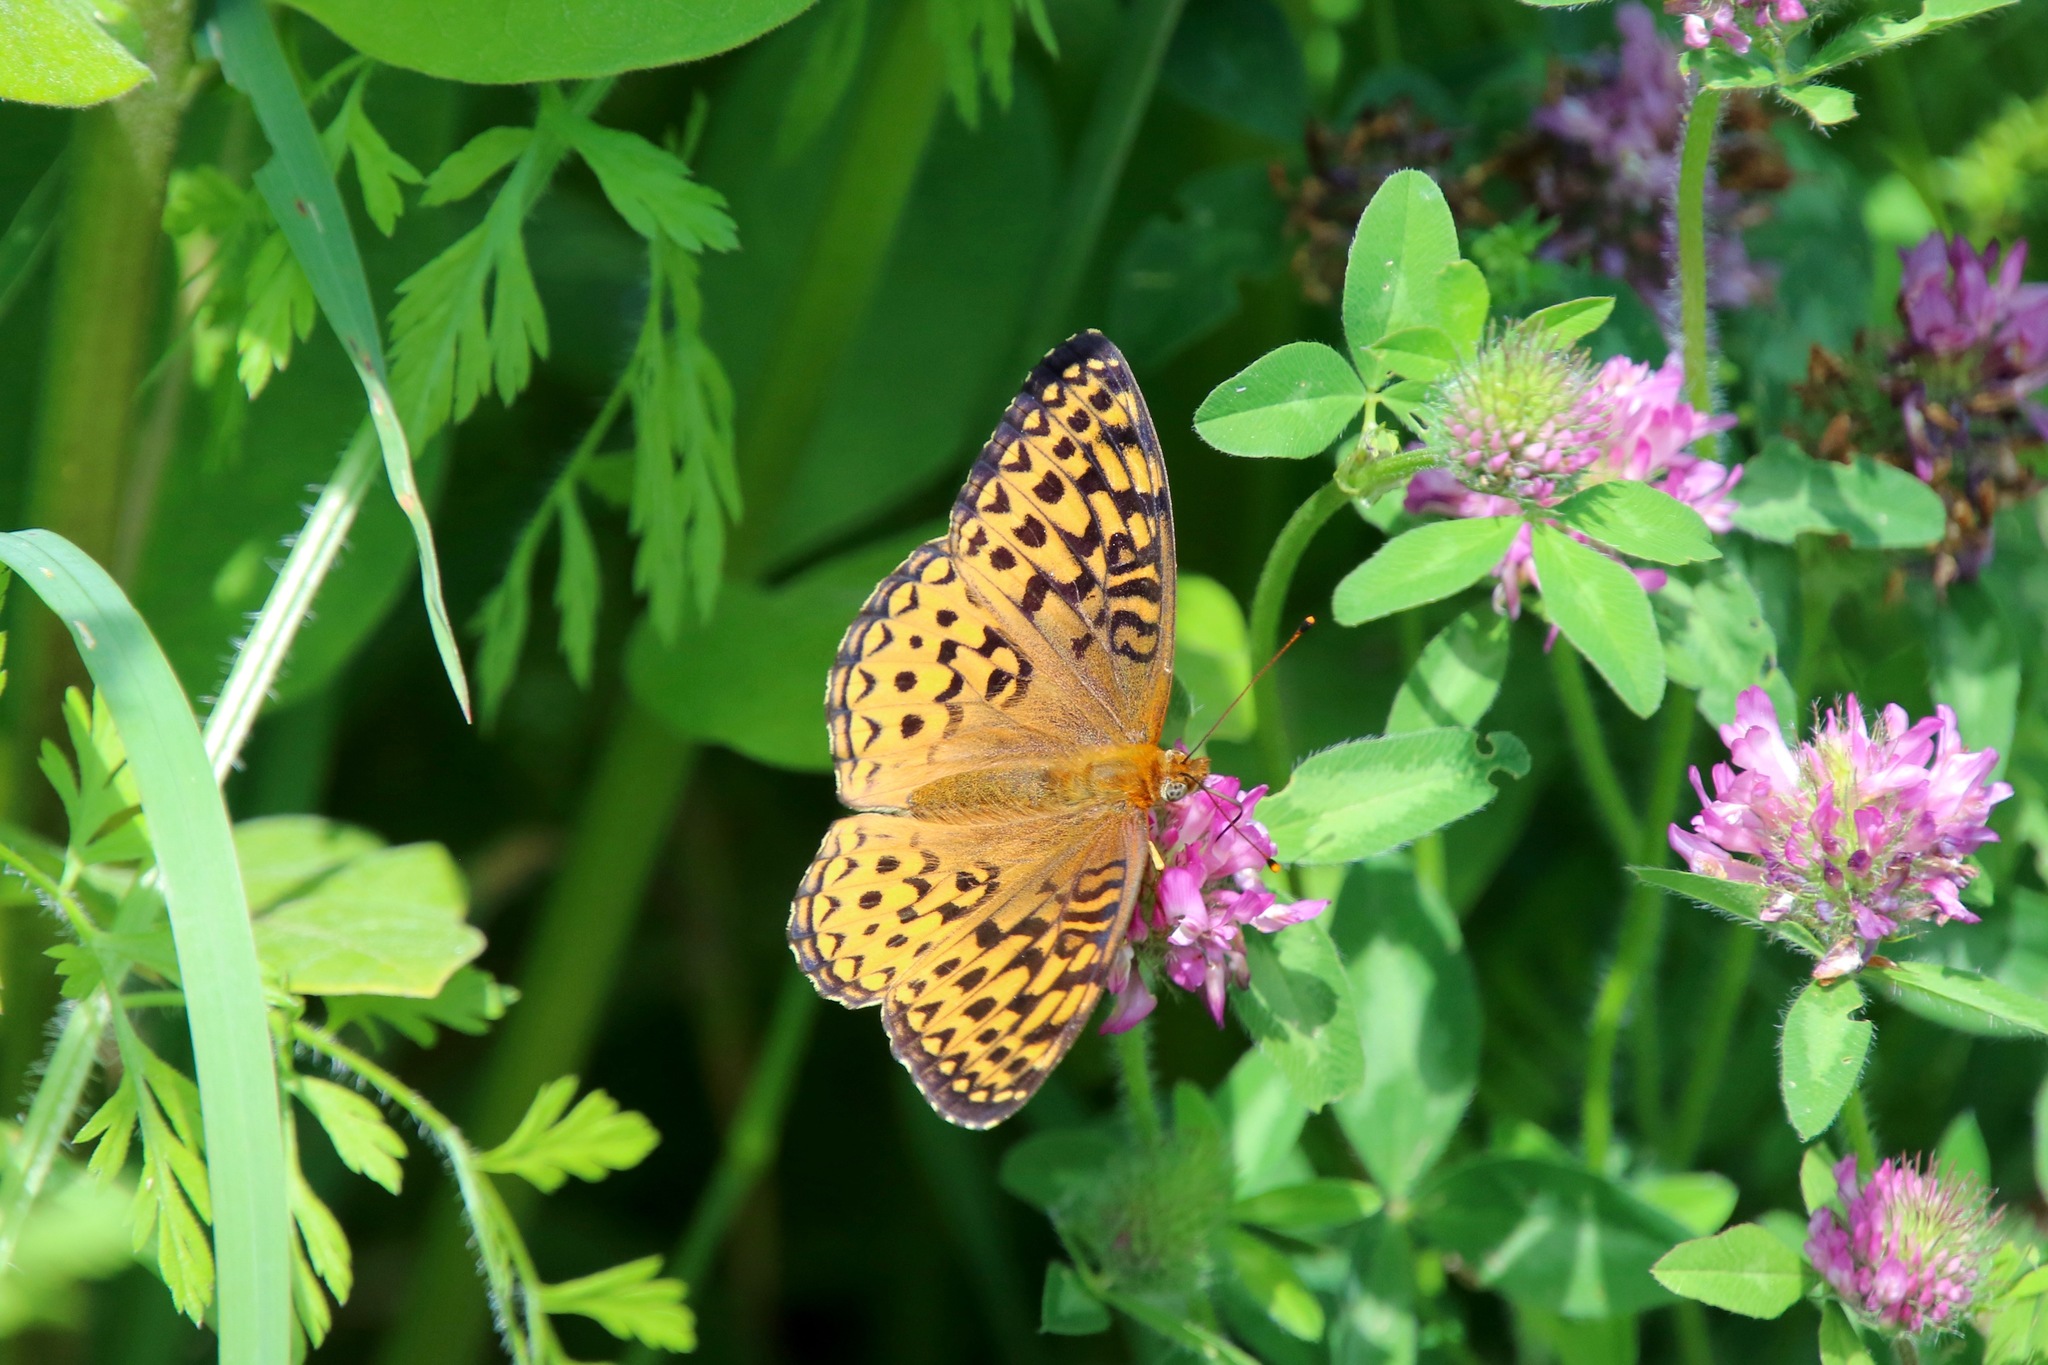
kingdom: Animalia
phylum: Arthropoda
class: Insecta
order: Lepidoptera
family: Nymphalidae
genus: Speyeria
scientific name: Speyeria atlantis
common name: Atlantis fritillary
